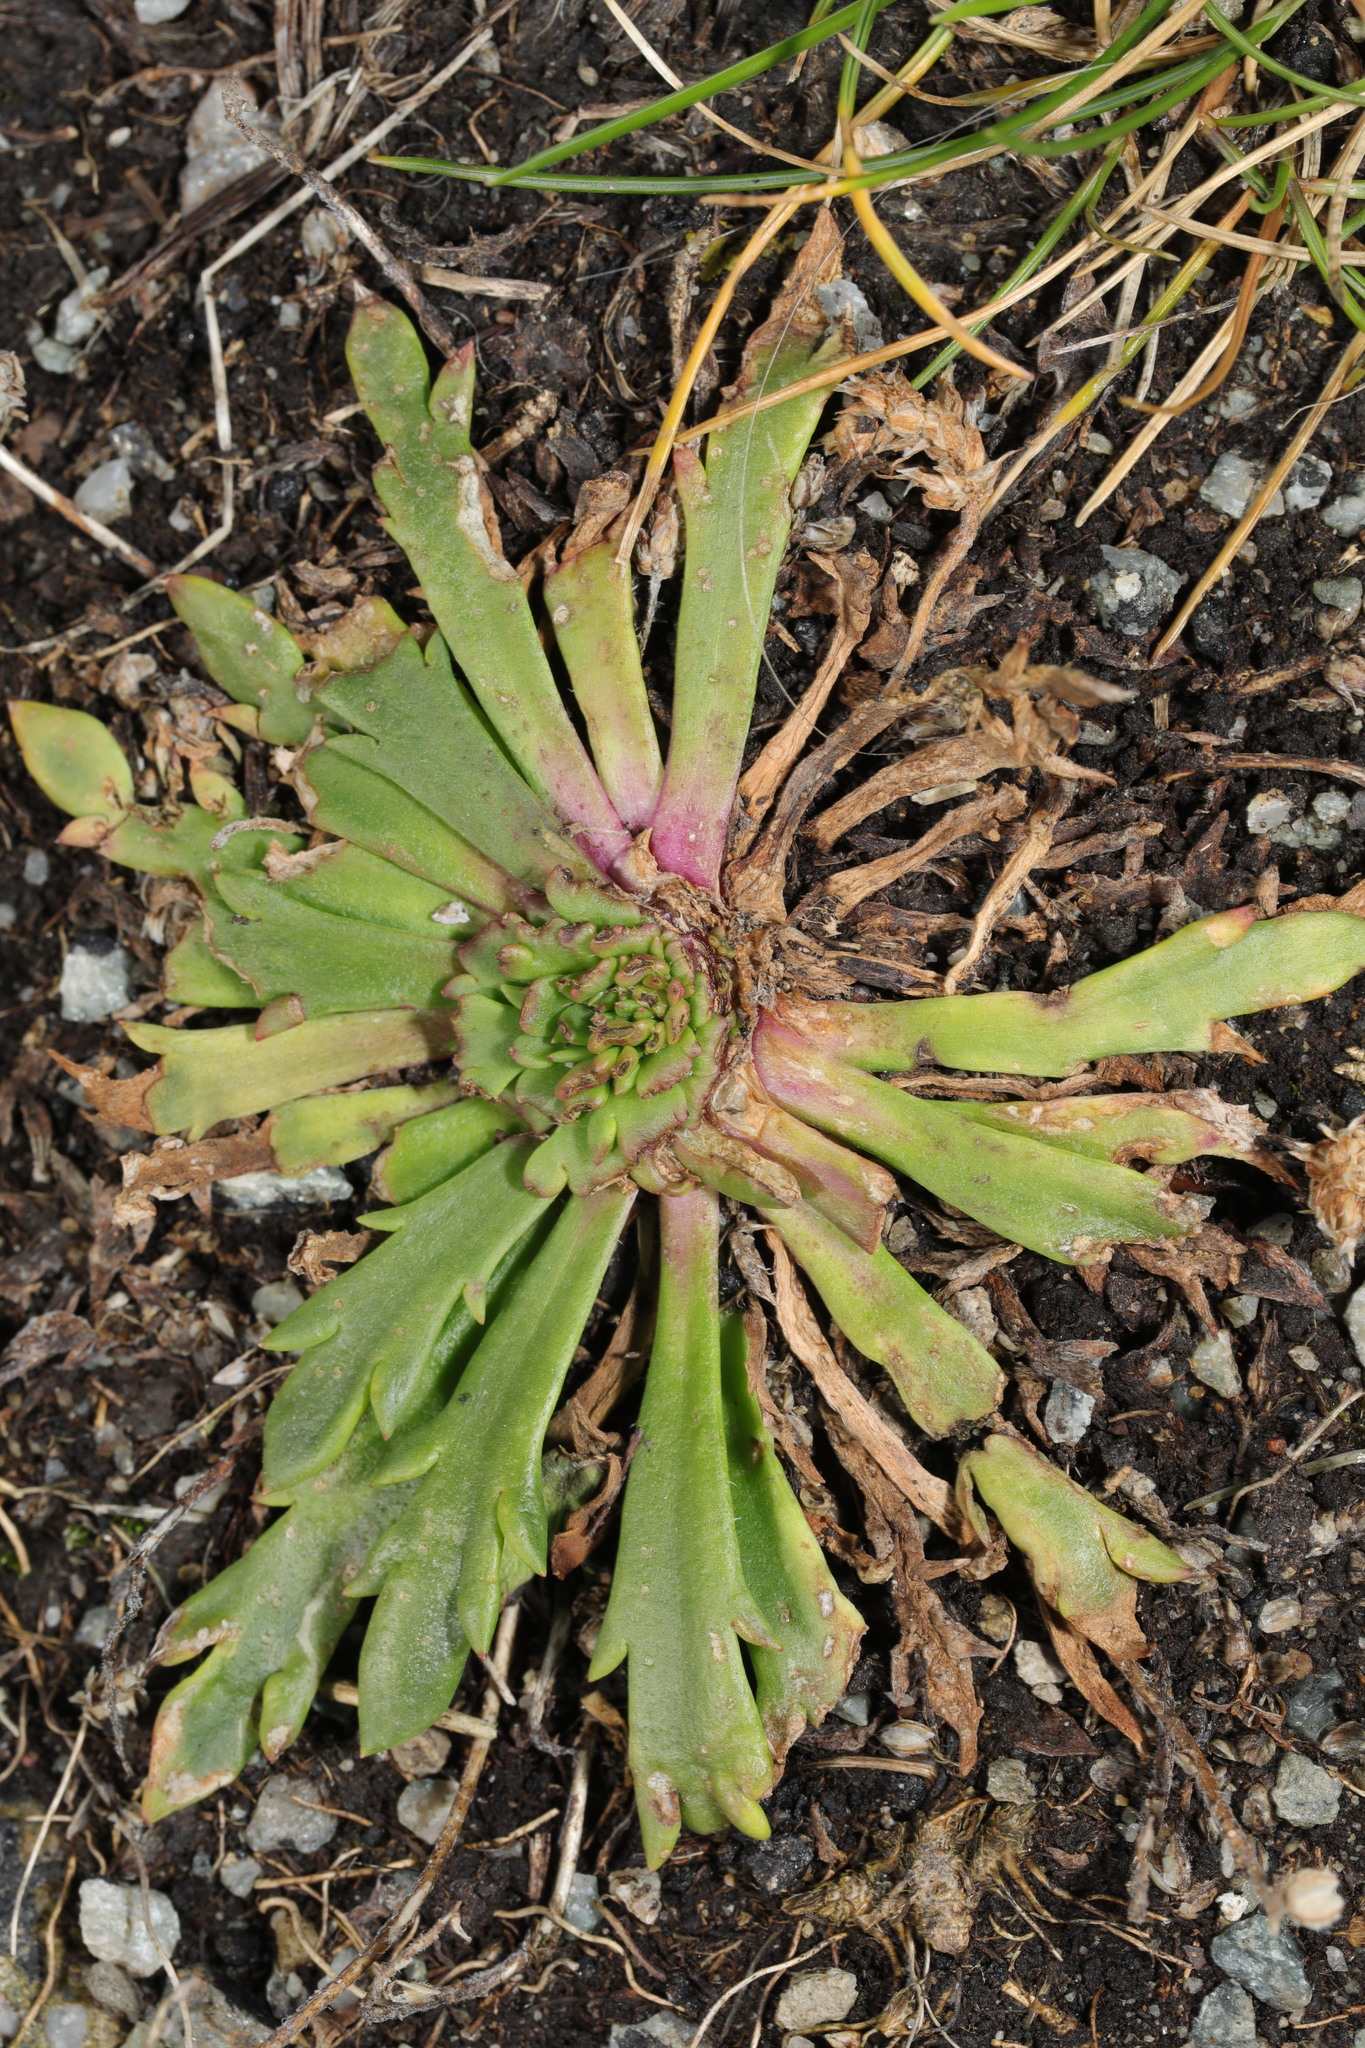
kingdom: Plantae
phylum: Tracheophyta
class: Magnoliopsida
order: Lamiales
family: Plantaginaceae
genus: Plantago
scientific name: Plantago coronopus
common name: Buck's-horn plantain
